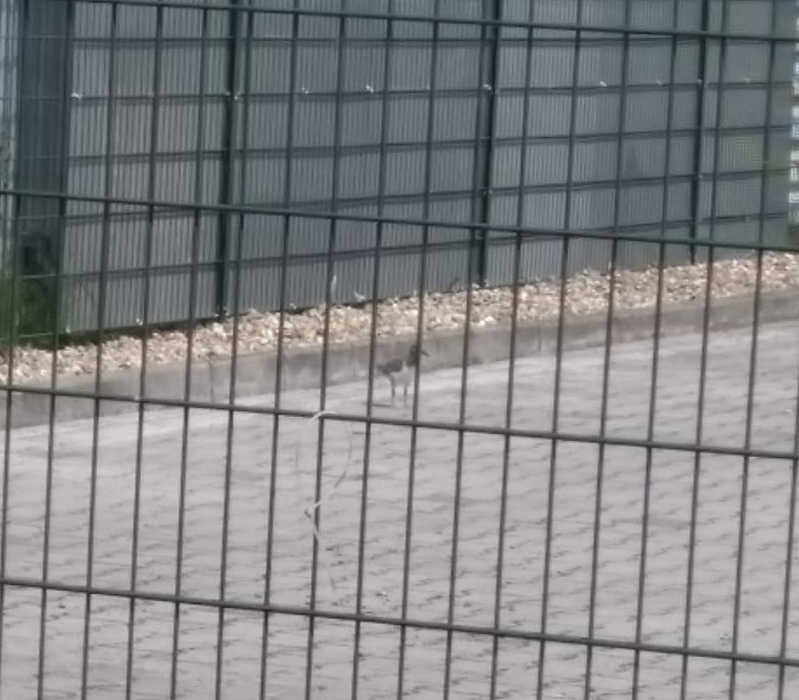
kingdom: Animalia
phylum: Chordata
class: Aves
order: Charadriiformes
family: Haematopodidae
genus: Haematopus
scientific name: Haematopus ostralegus
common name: Eurasian oystercatcher
